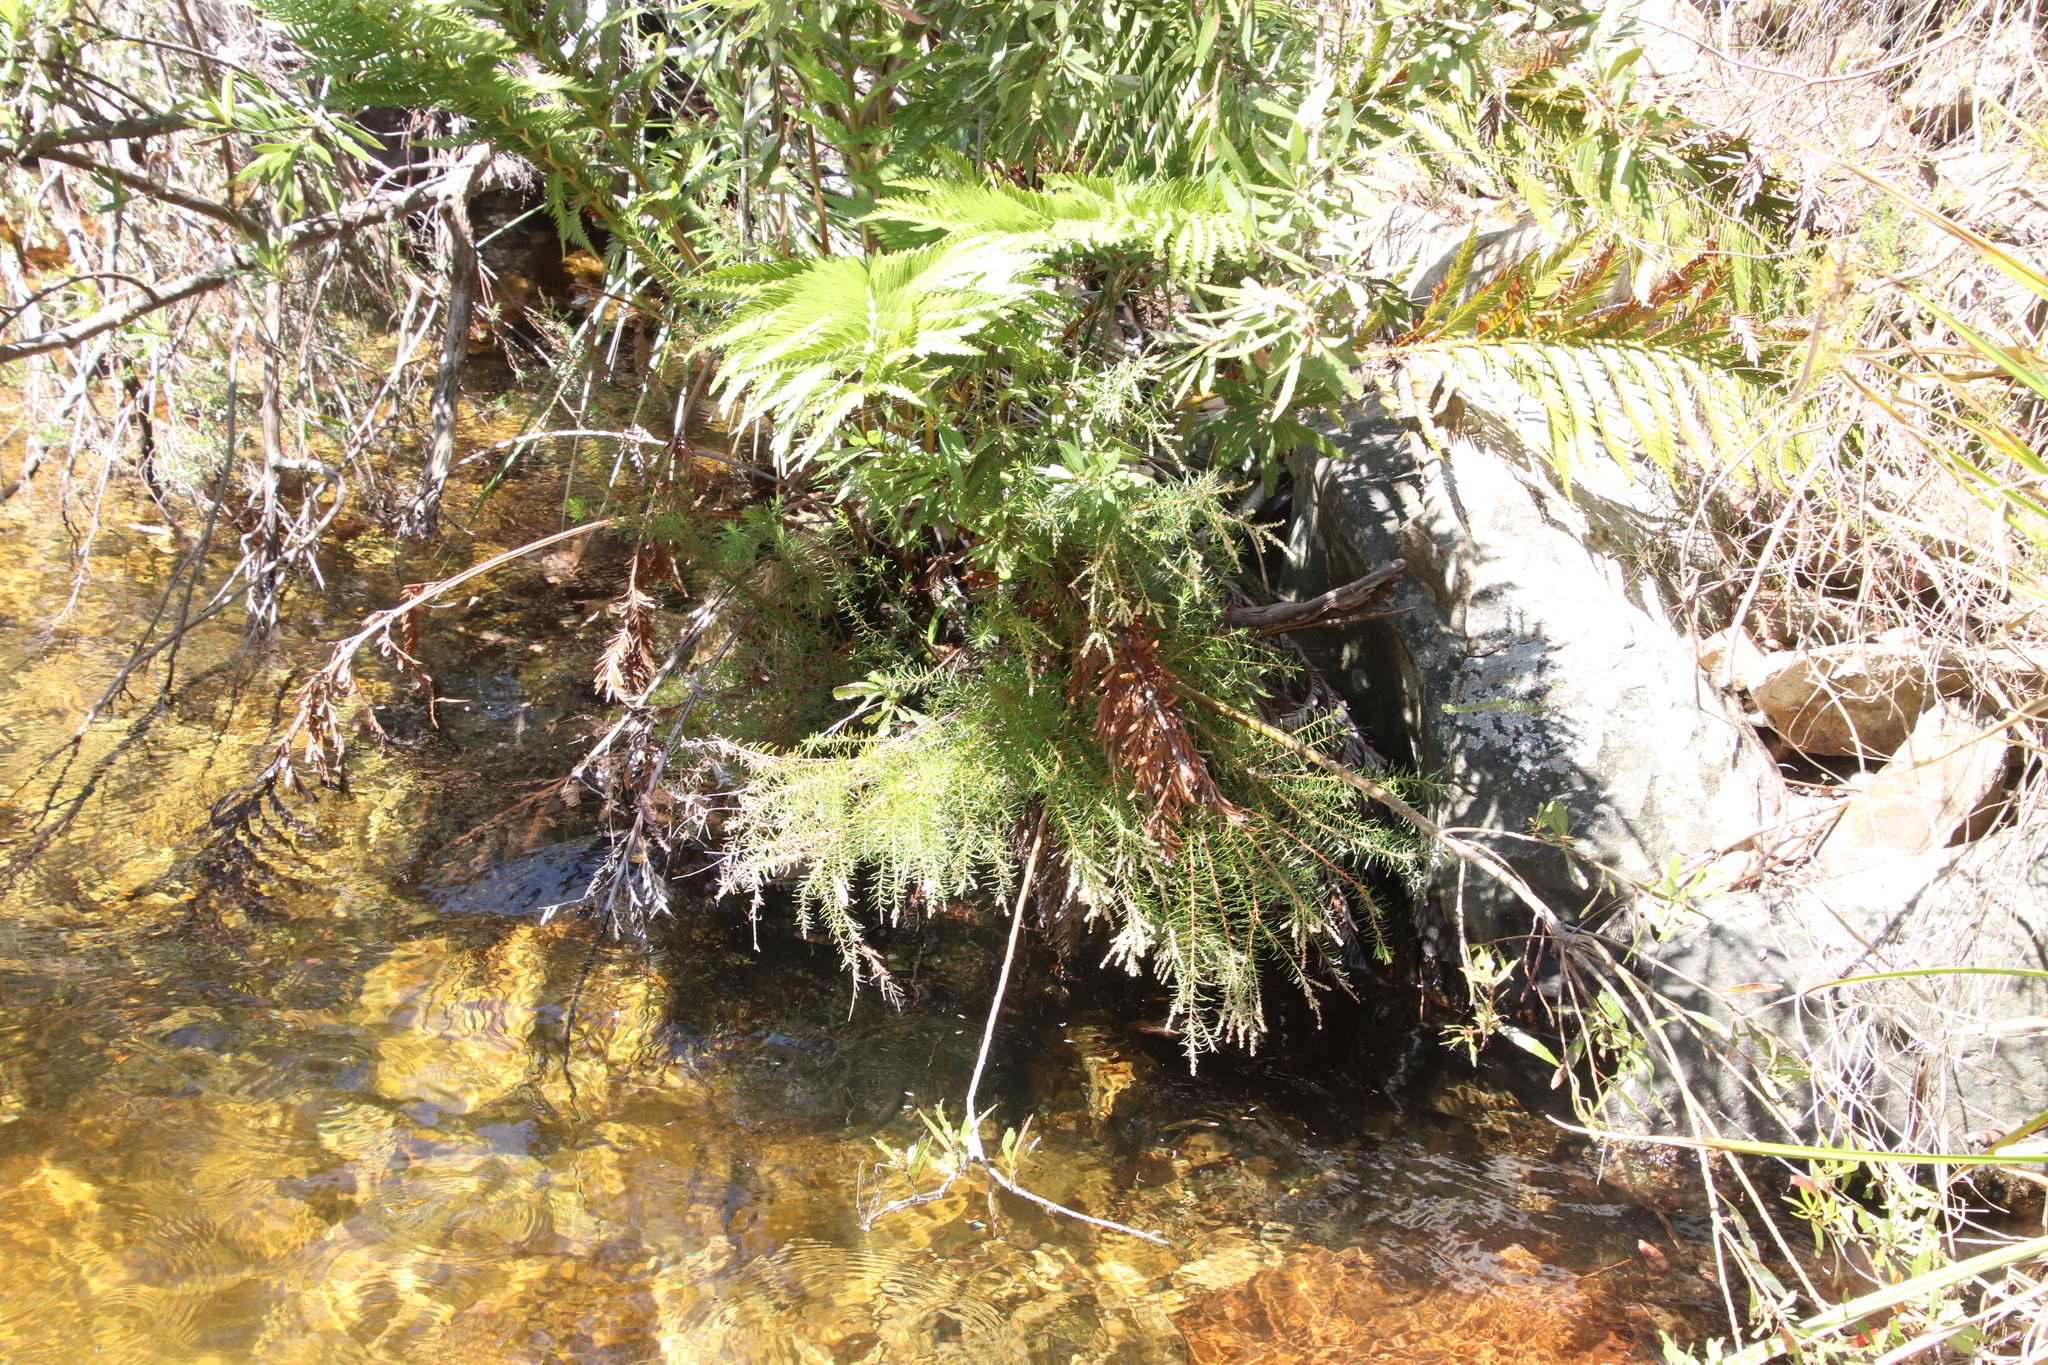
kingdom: Plantae
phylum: Tracheophyta
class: Magnoliopsida
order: Bruniales
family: Bruniaceae
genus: Brunia
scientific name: Brunia africana
